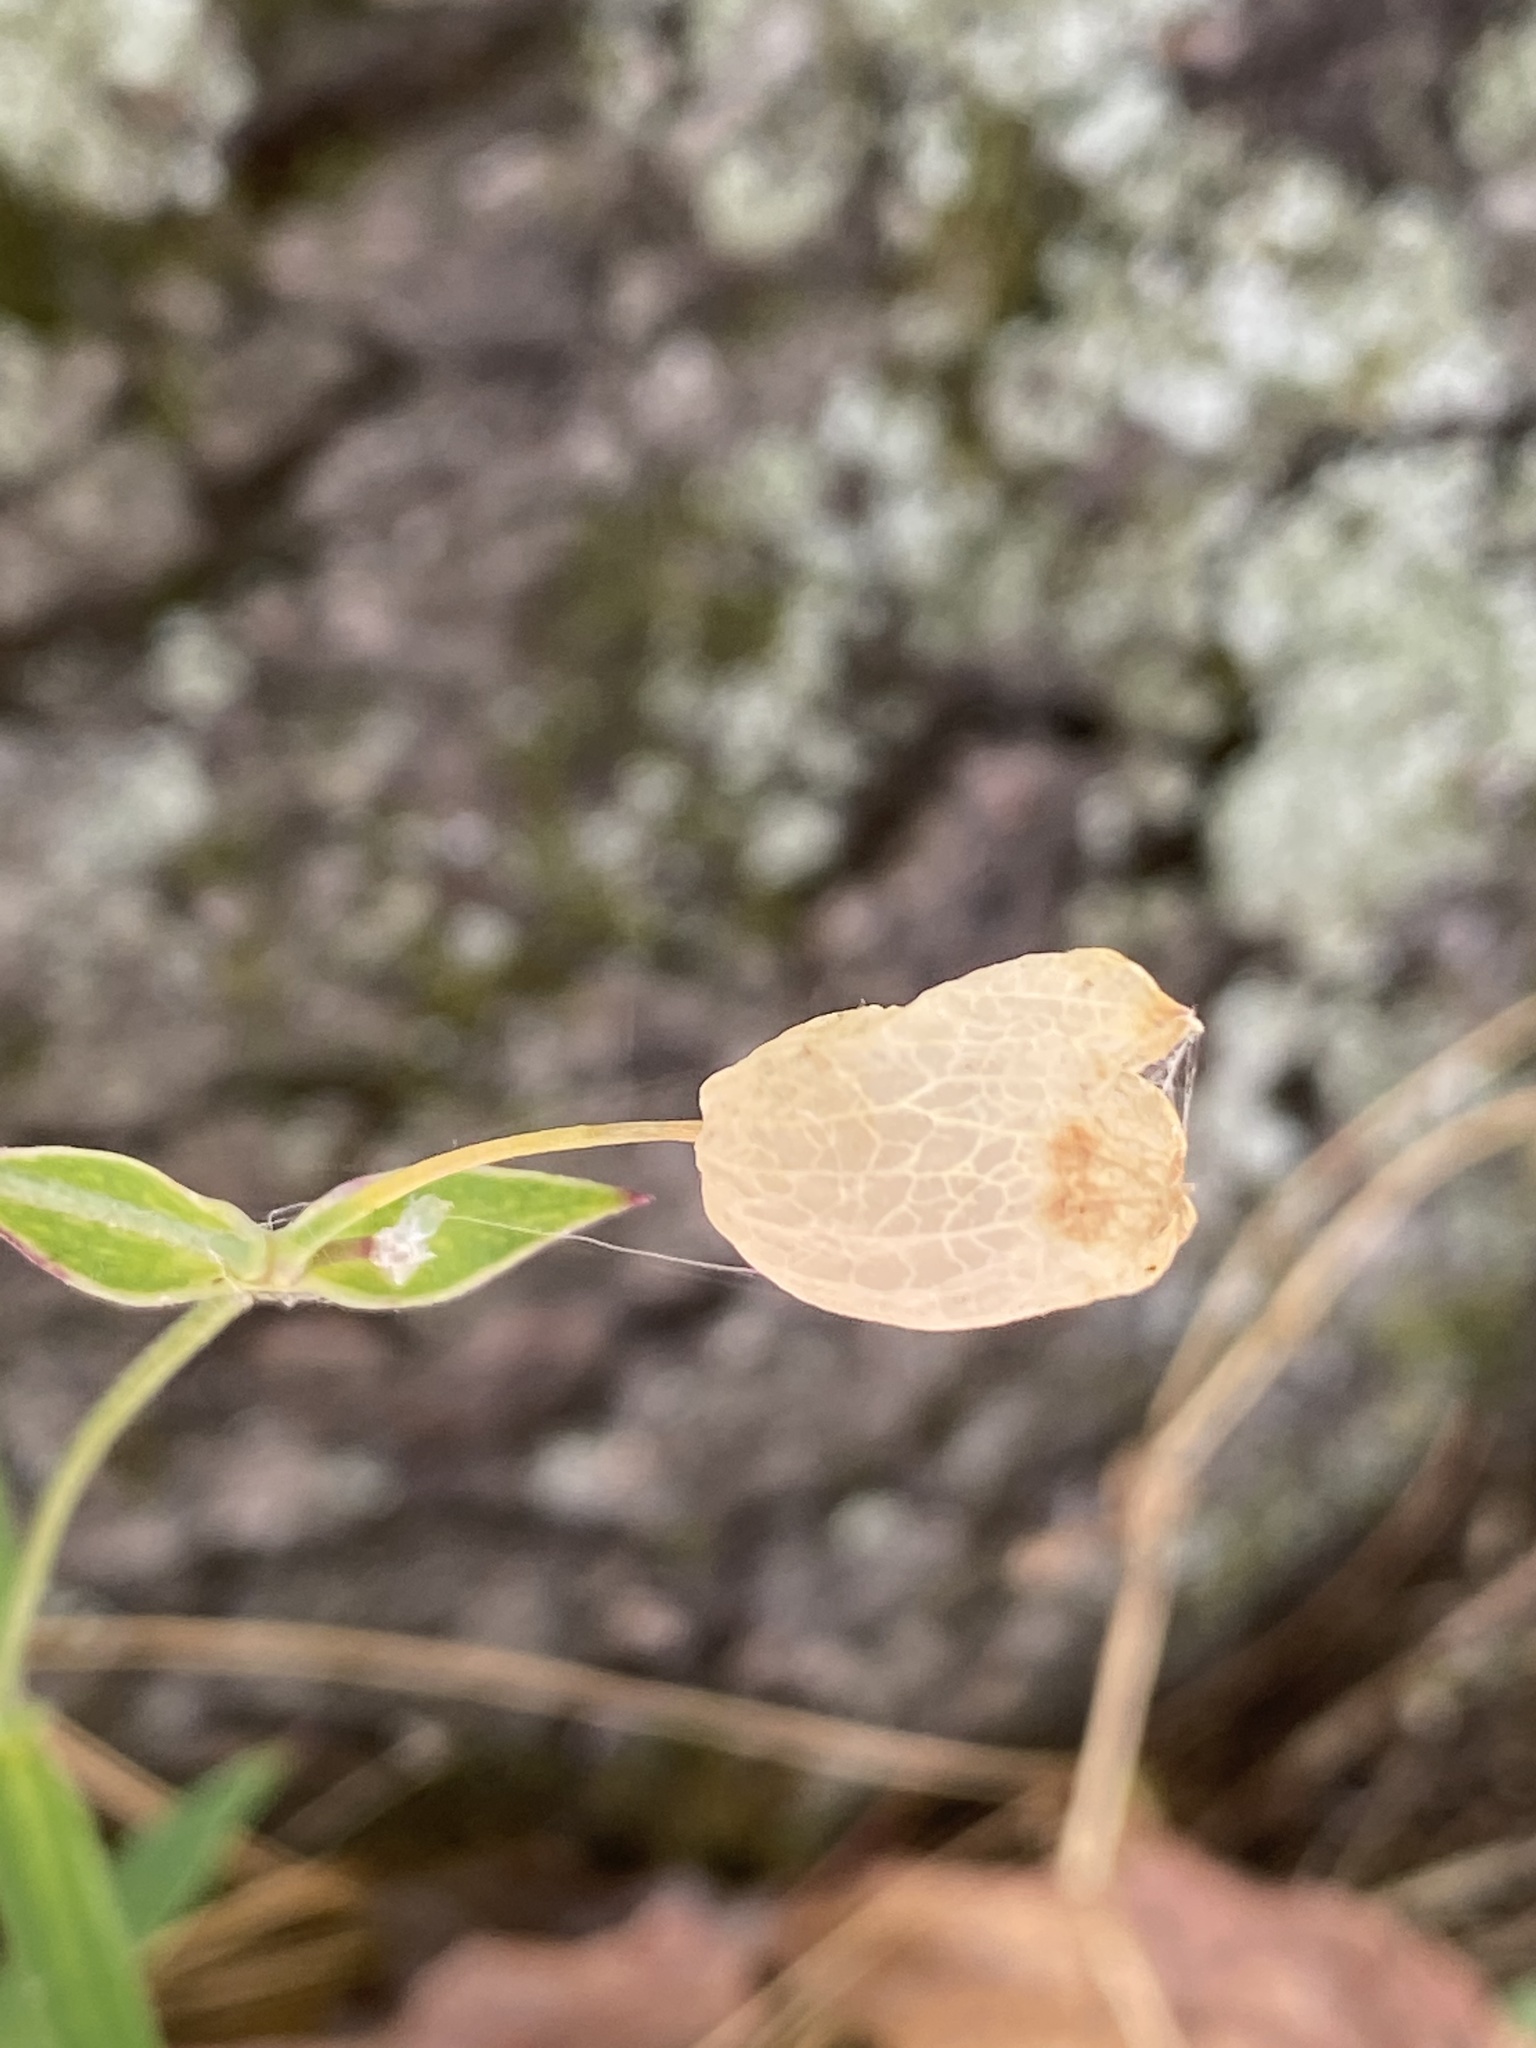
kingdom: Plantae
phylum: Tracheophyta
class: Magnoliopsida
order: Caryophyllales
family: Caryophyllaceae
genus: Silene
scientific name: Silene vulgaris
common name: Bladder campion
